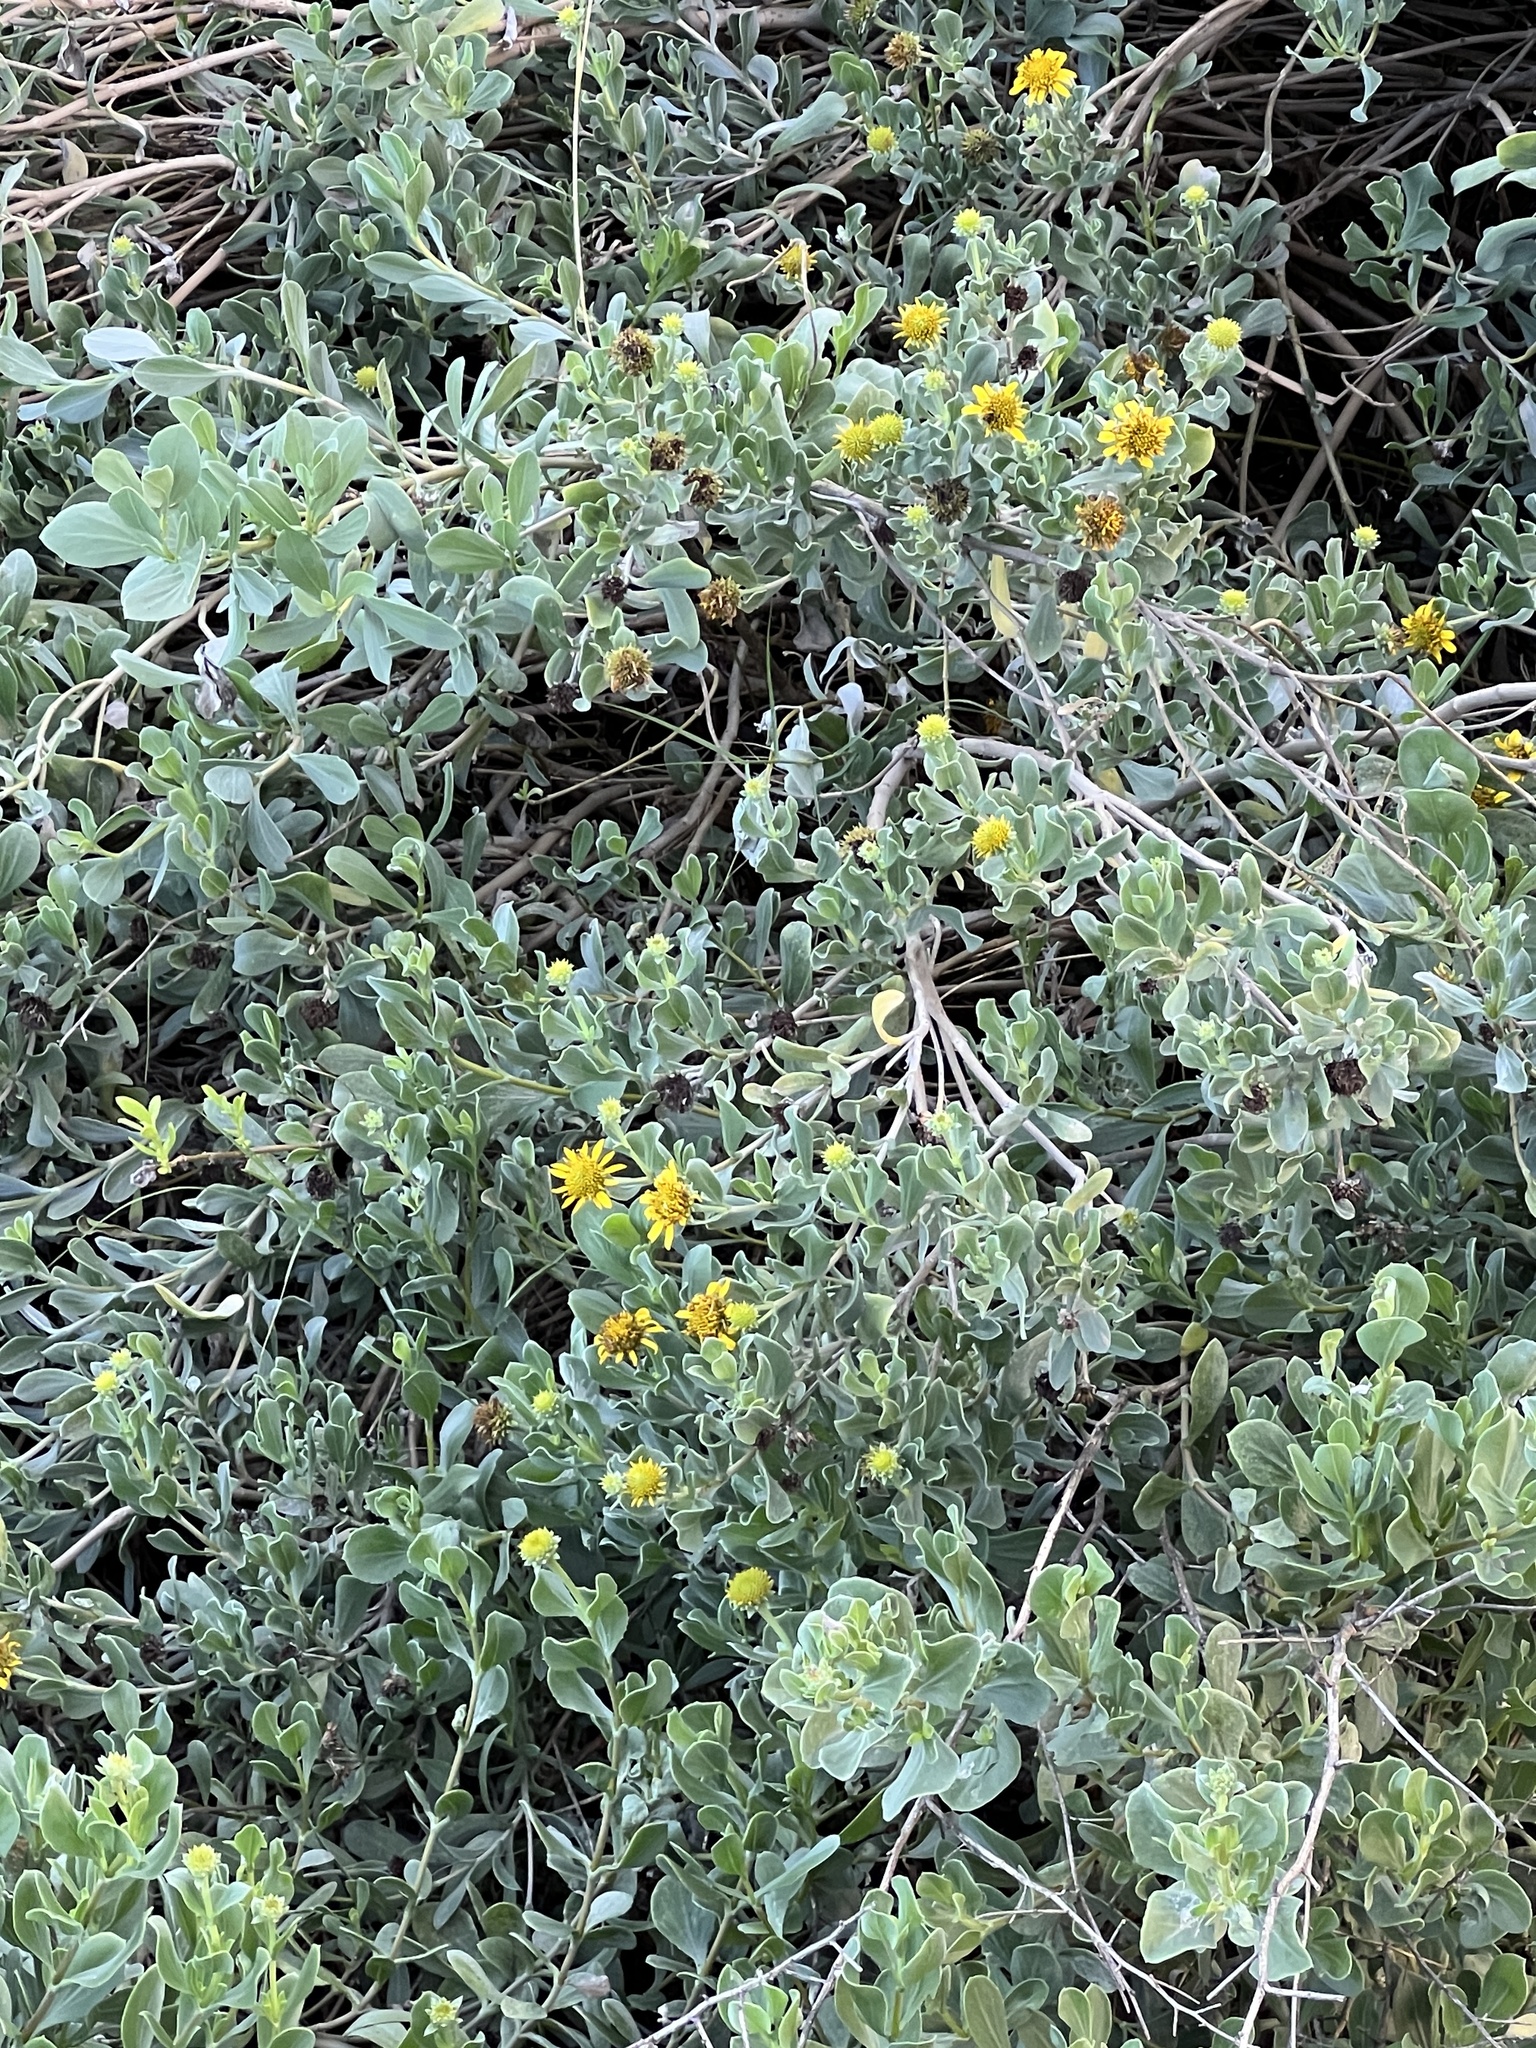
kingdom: Plantae
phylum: Tracheophyta
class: Magnoliopsida
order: Asterales
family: Asteraceae
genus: Borrichia
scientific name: Borrichia frutescens
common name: Sea oxeye
